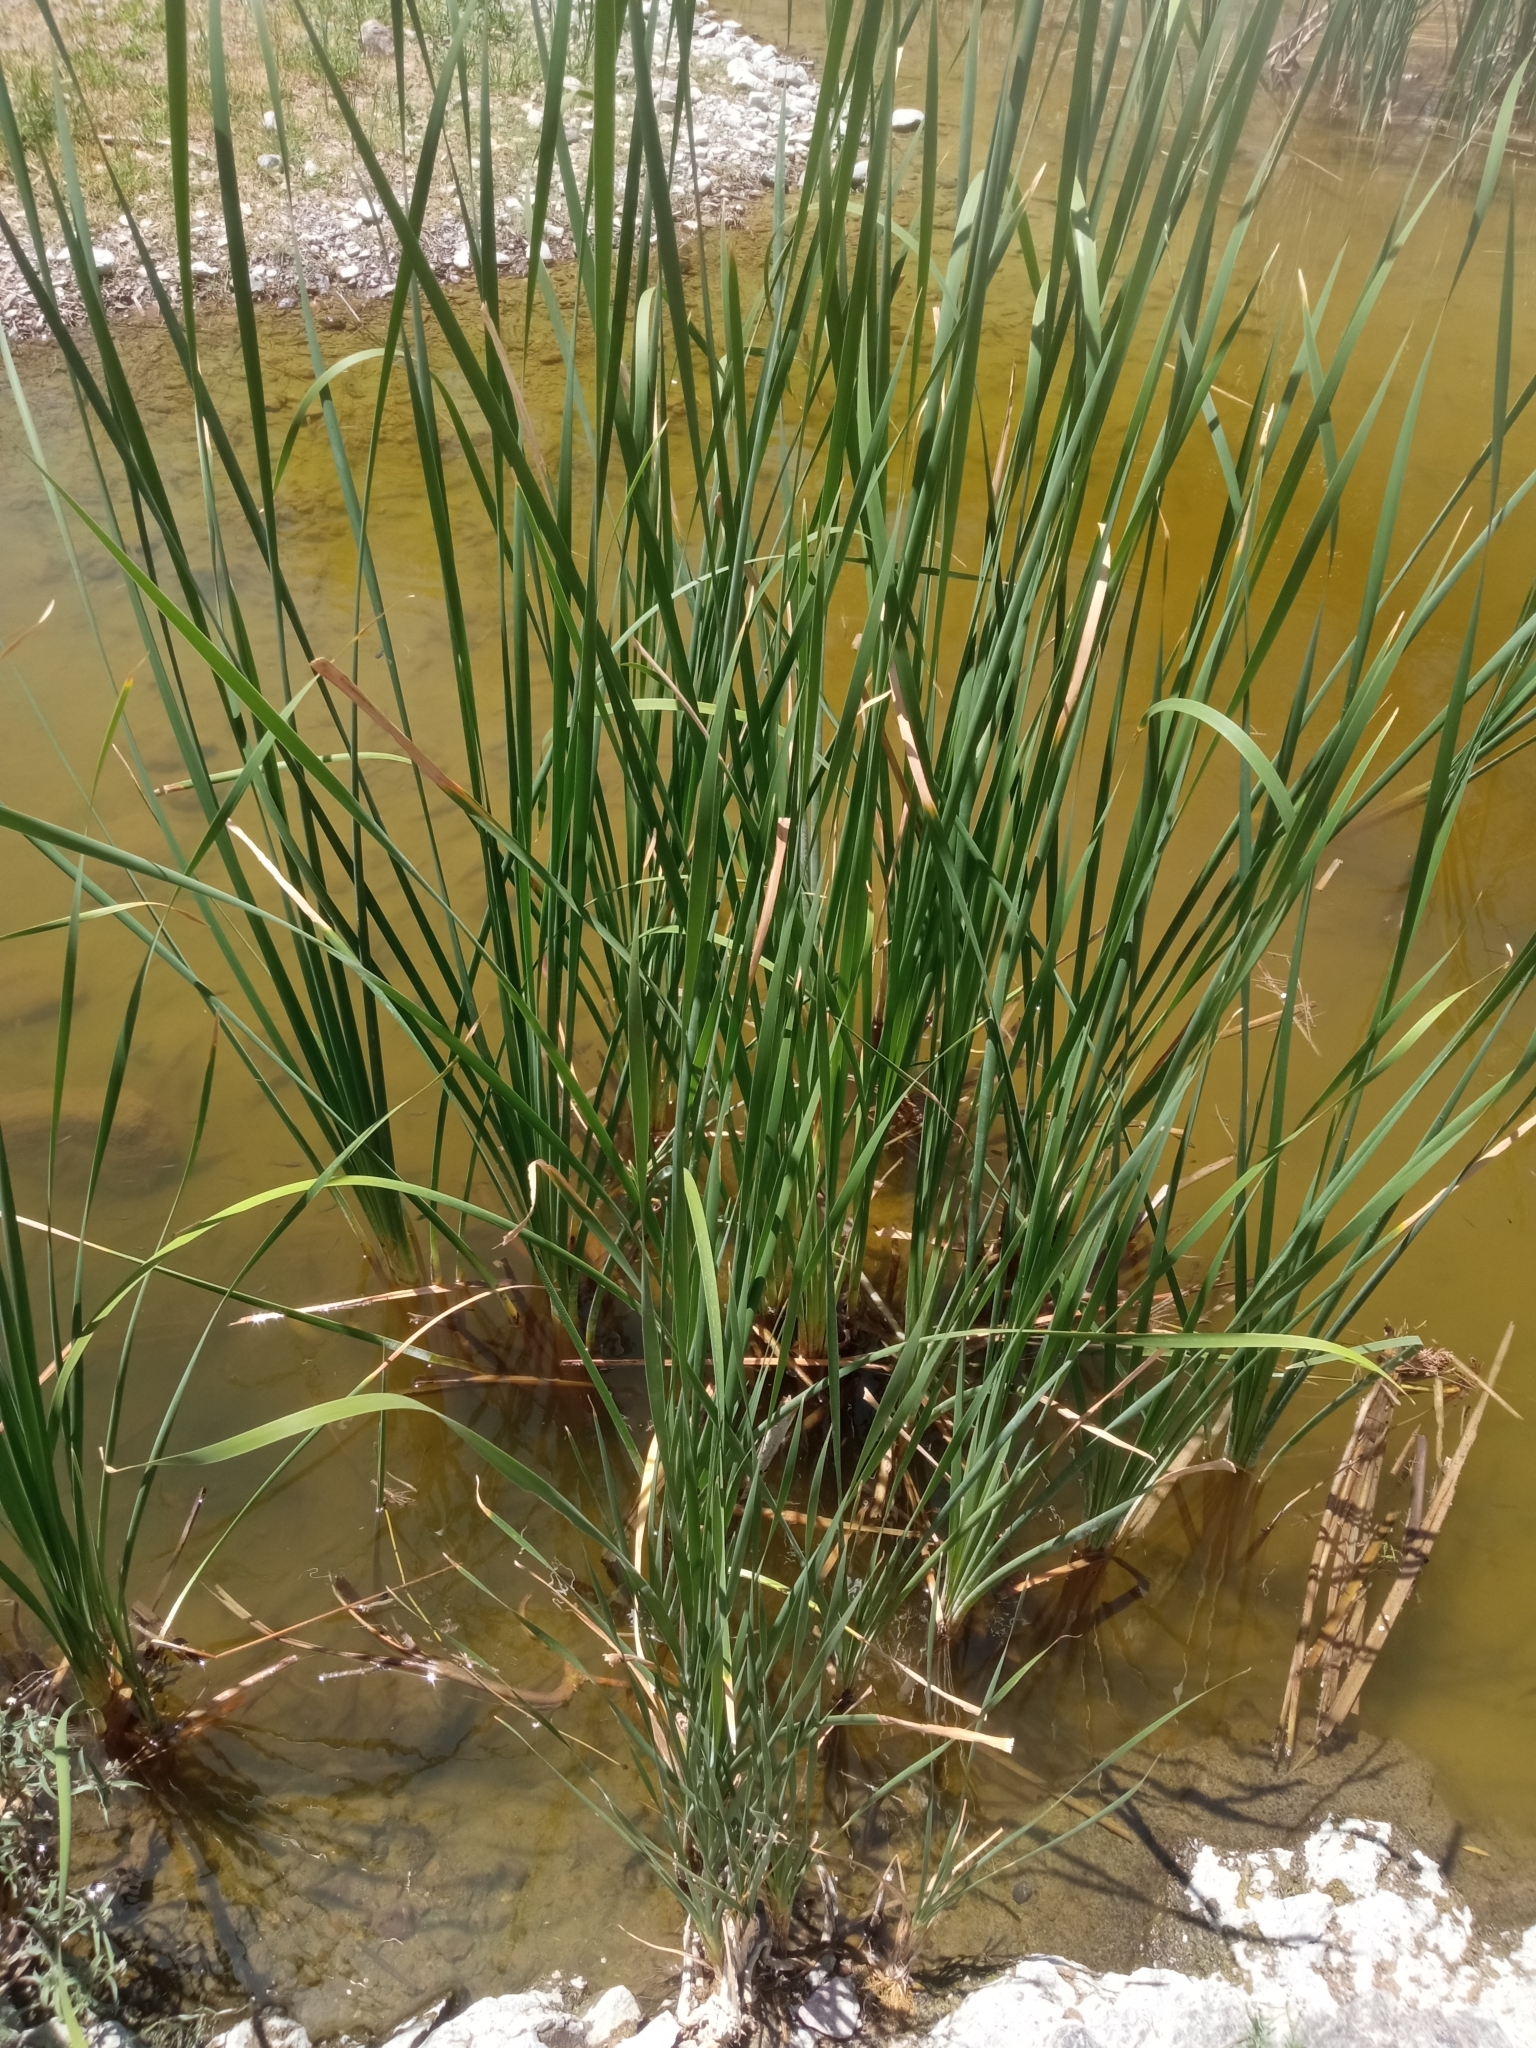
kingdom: Plantae
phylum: Tracheophyta
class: Liliopsida
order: Poales
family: Typhaceae
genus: Typha
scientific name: Typha domingensis
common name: Southern cattail
